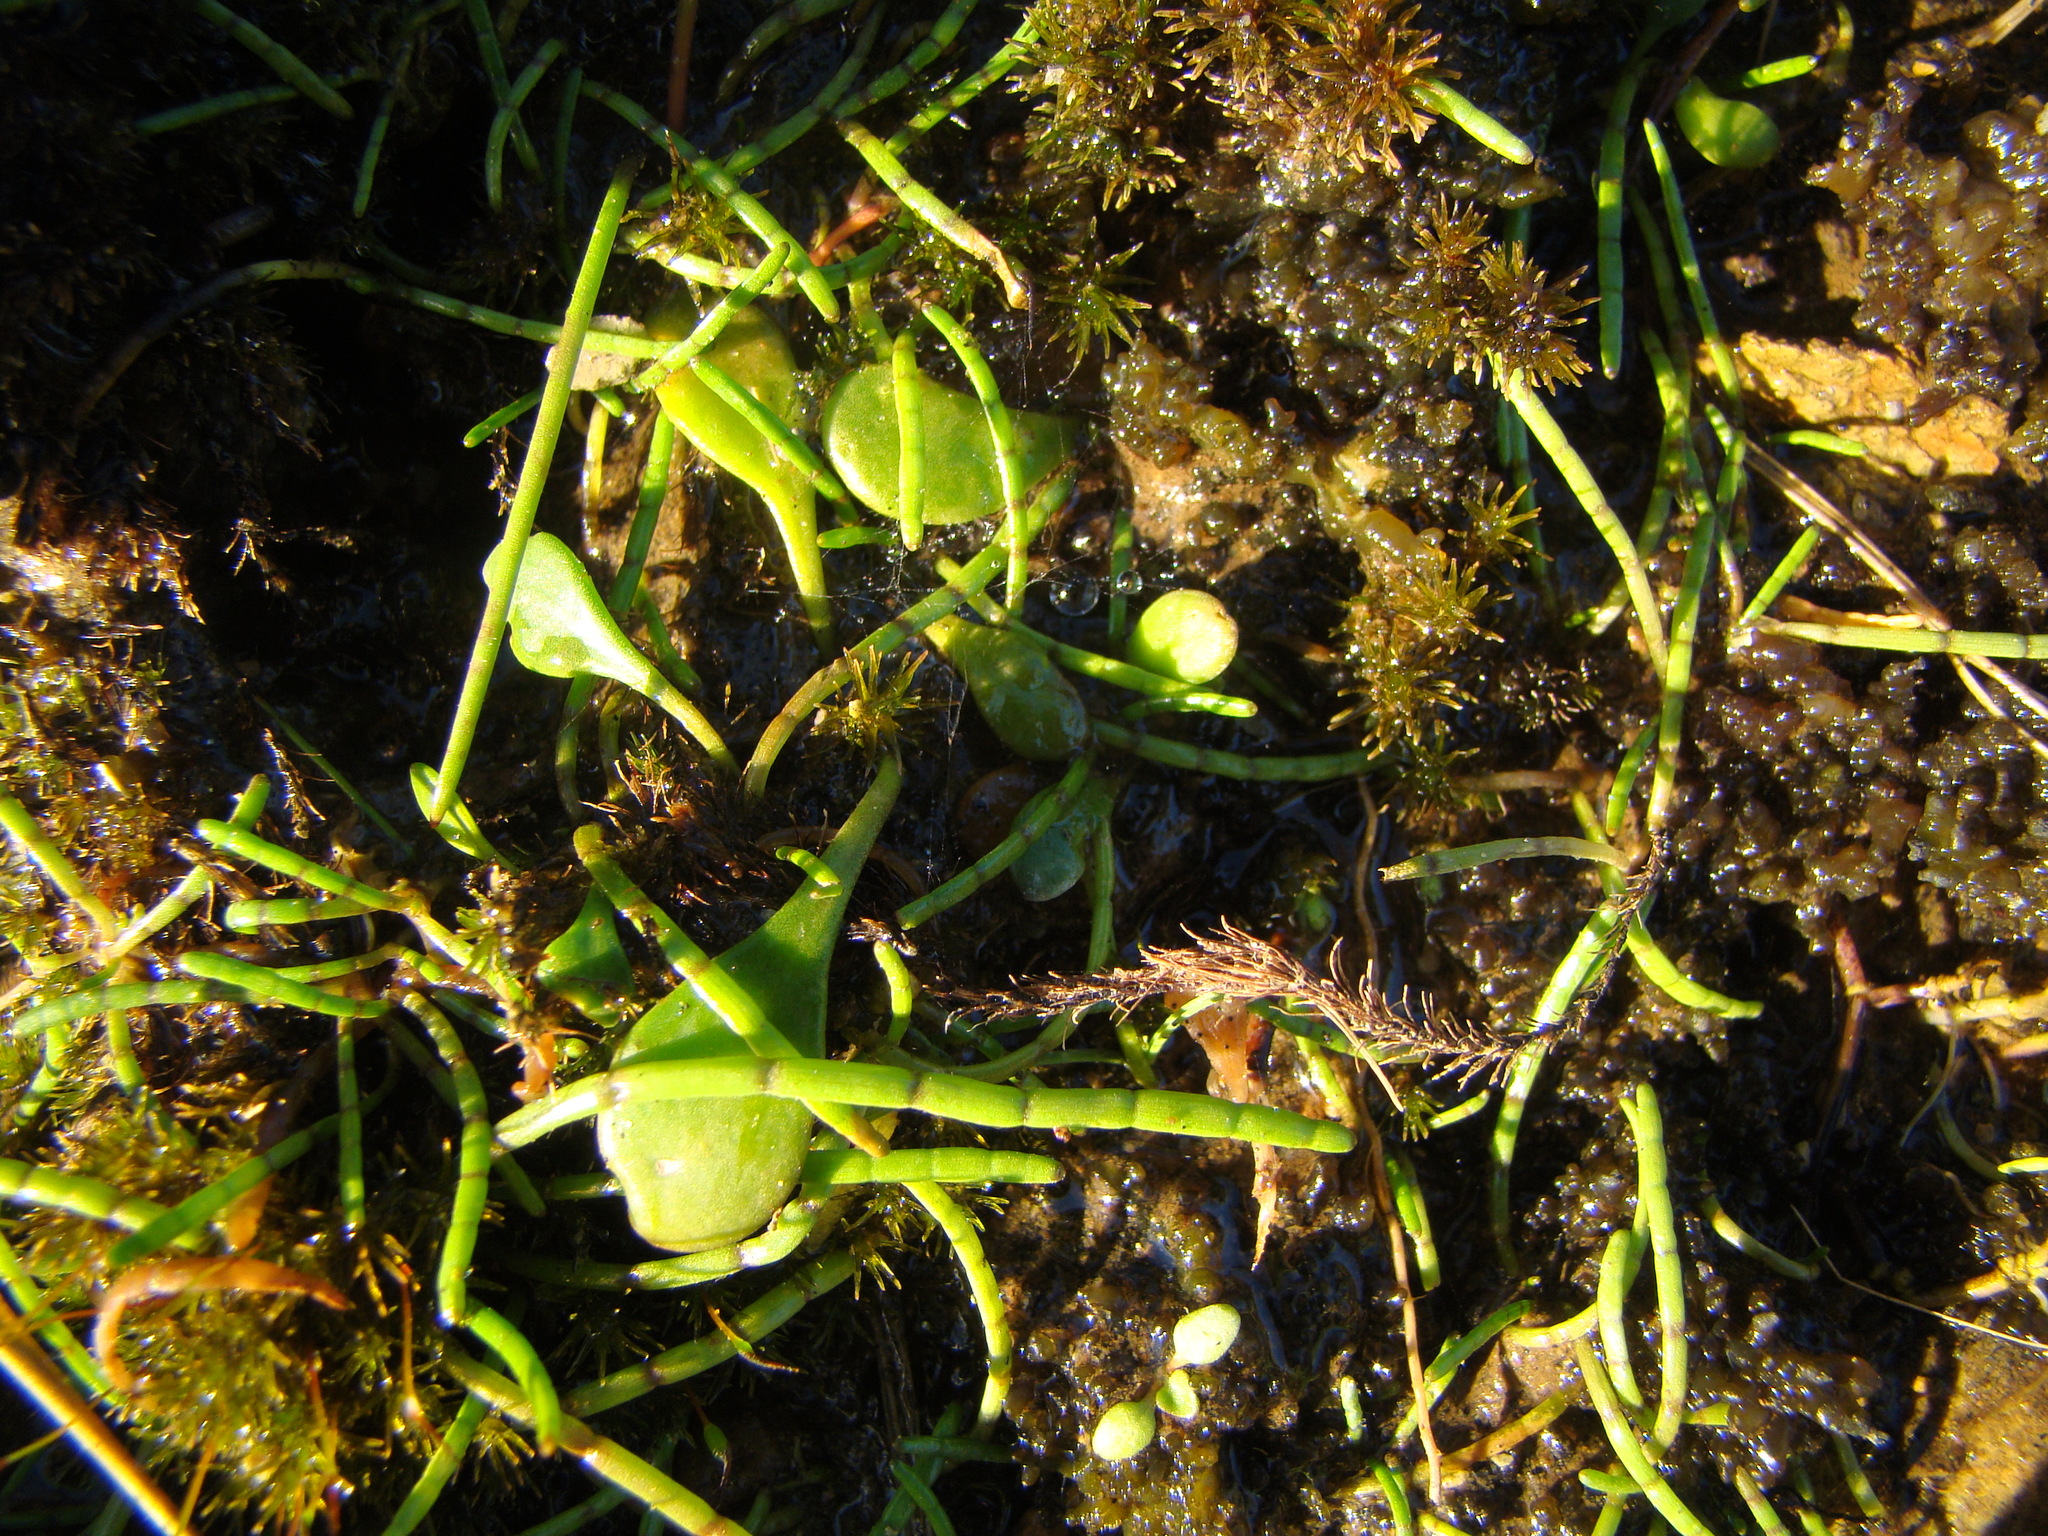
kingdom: Plantae
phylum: Tracheophyta
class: Magnoliopsida
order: Ericales
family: Primulaceae
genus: Samolus
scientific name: Samolus repens
